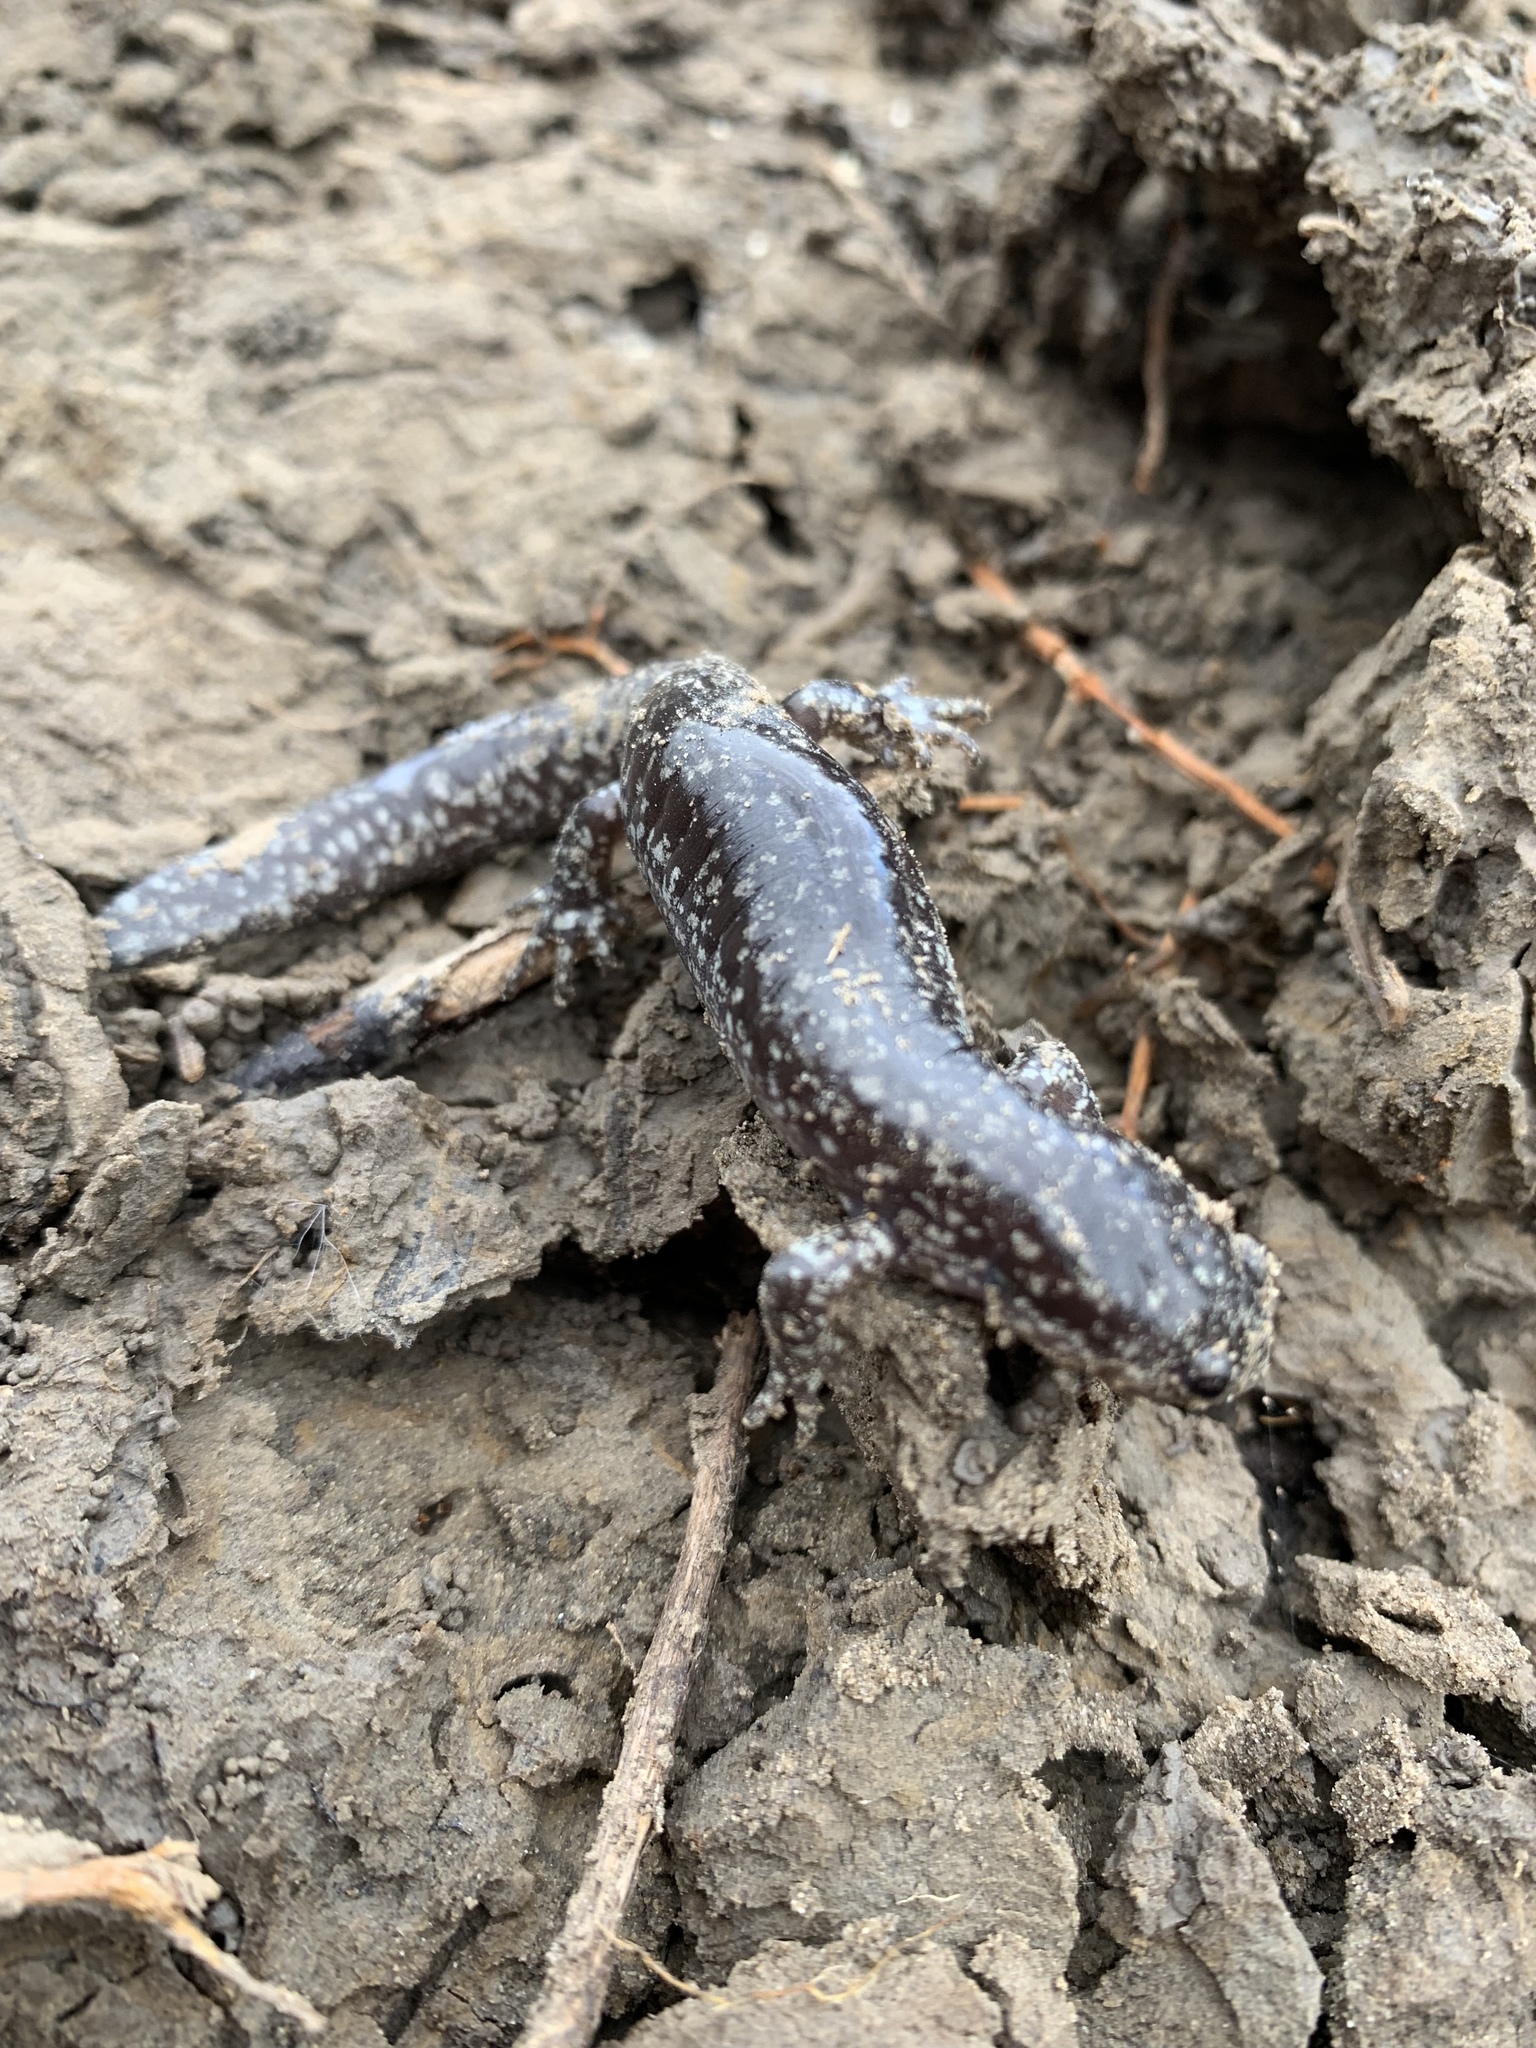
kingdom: Animalia
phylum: Chordata
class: Amphibia
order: Caudata
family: Ambystomatidae
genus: Ambystoma
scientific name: Ambystoma texanum
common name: Small-mouth salamander
